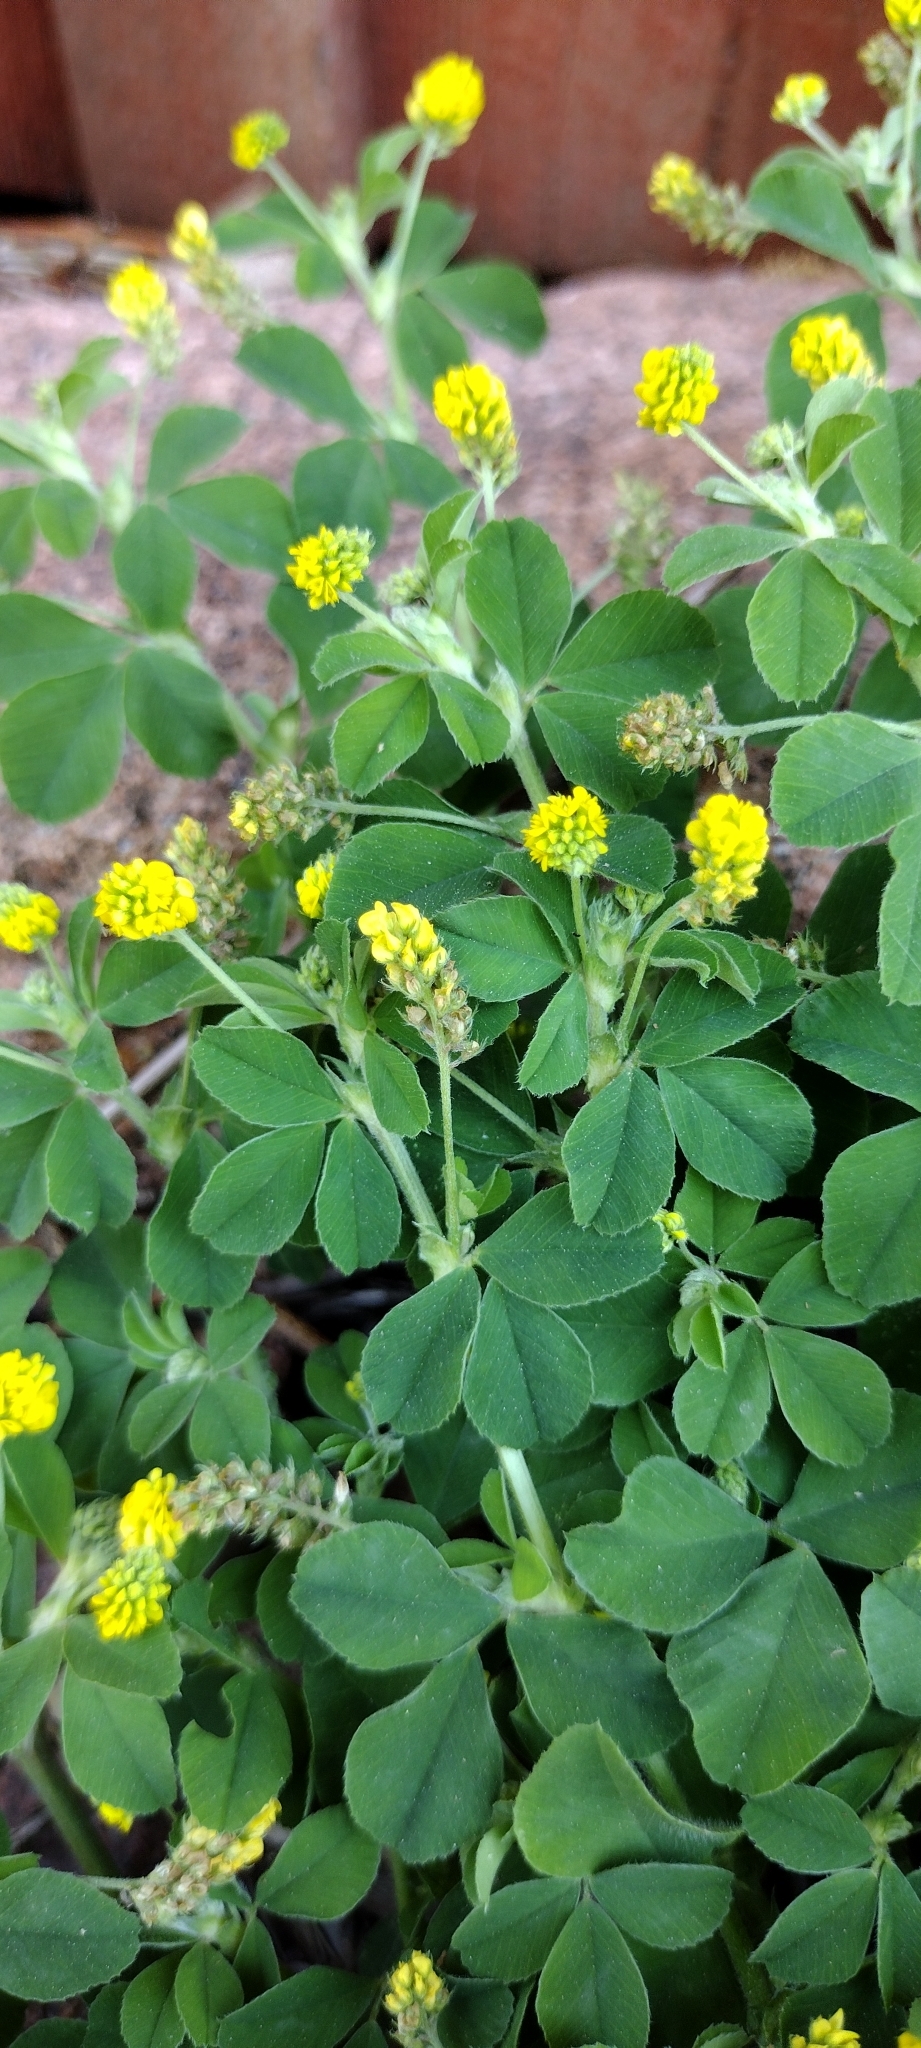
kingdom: Plantae
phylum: Tracheophyta
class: Magnoliopsida
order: Fabales
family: Fabaceae
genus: Medicago
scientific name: Medicago lupulina
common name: Black medick
